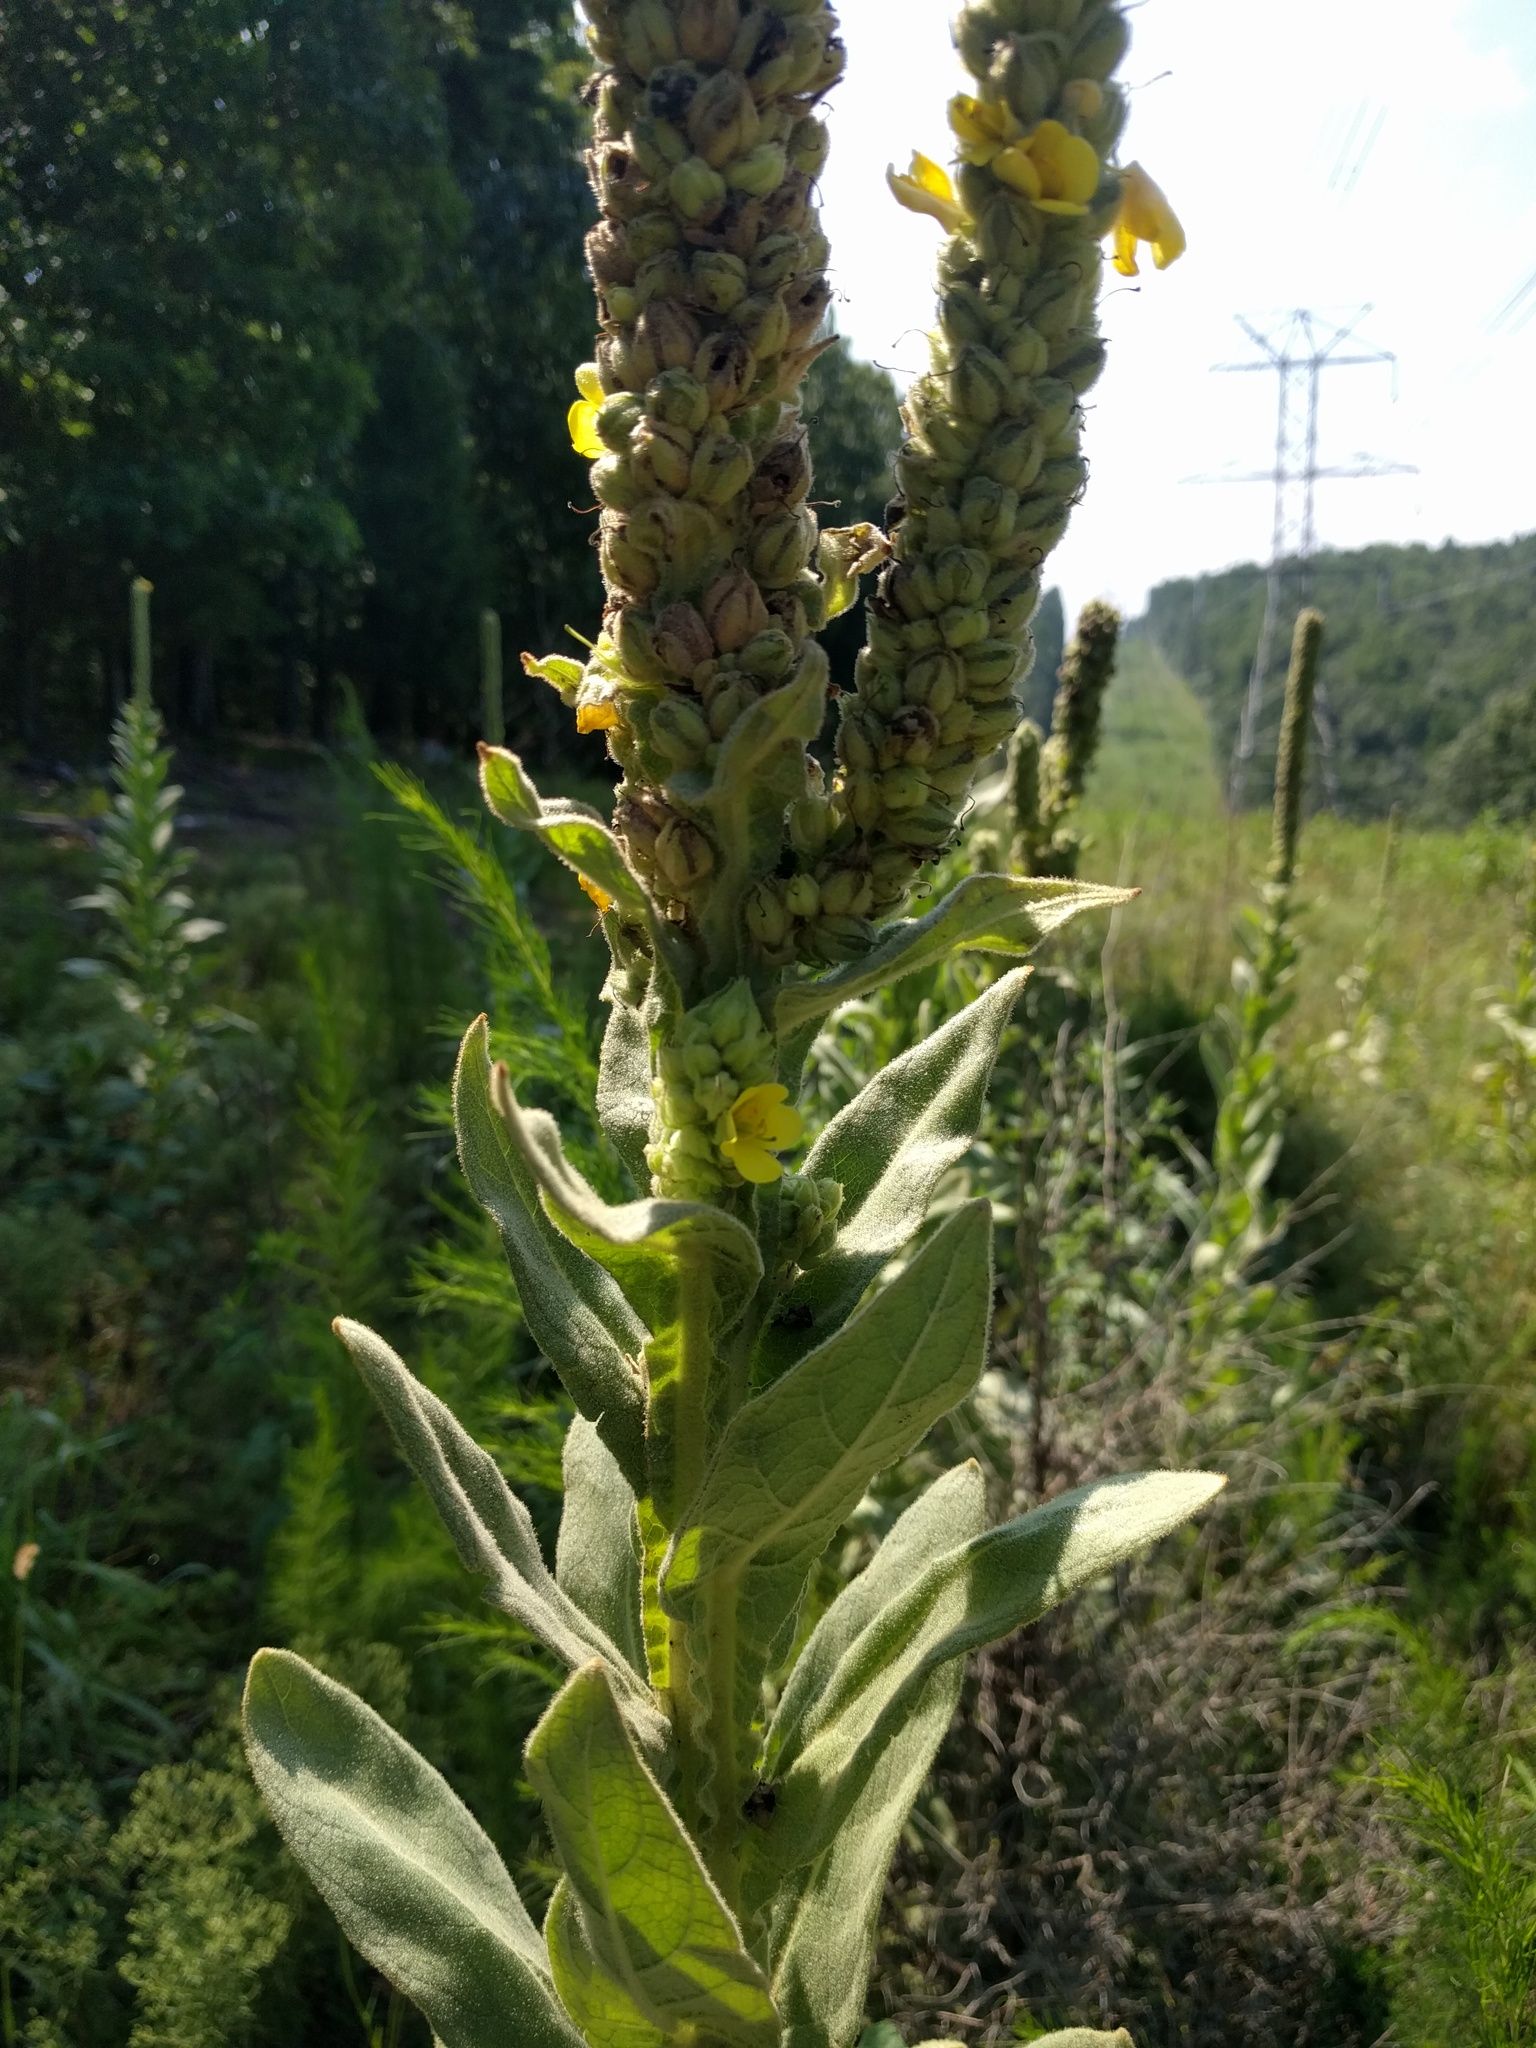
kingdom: Plantae
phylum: Tracheophyta
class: Magnoliopsida
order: Lamiales
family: Scrophulariaceae
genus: Verbascum
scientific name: Verbascum thapsus
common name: Common mullein
